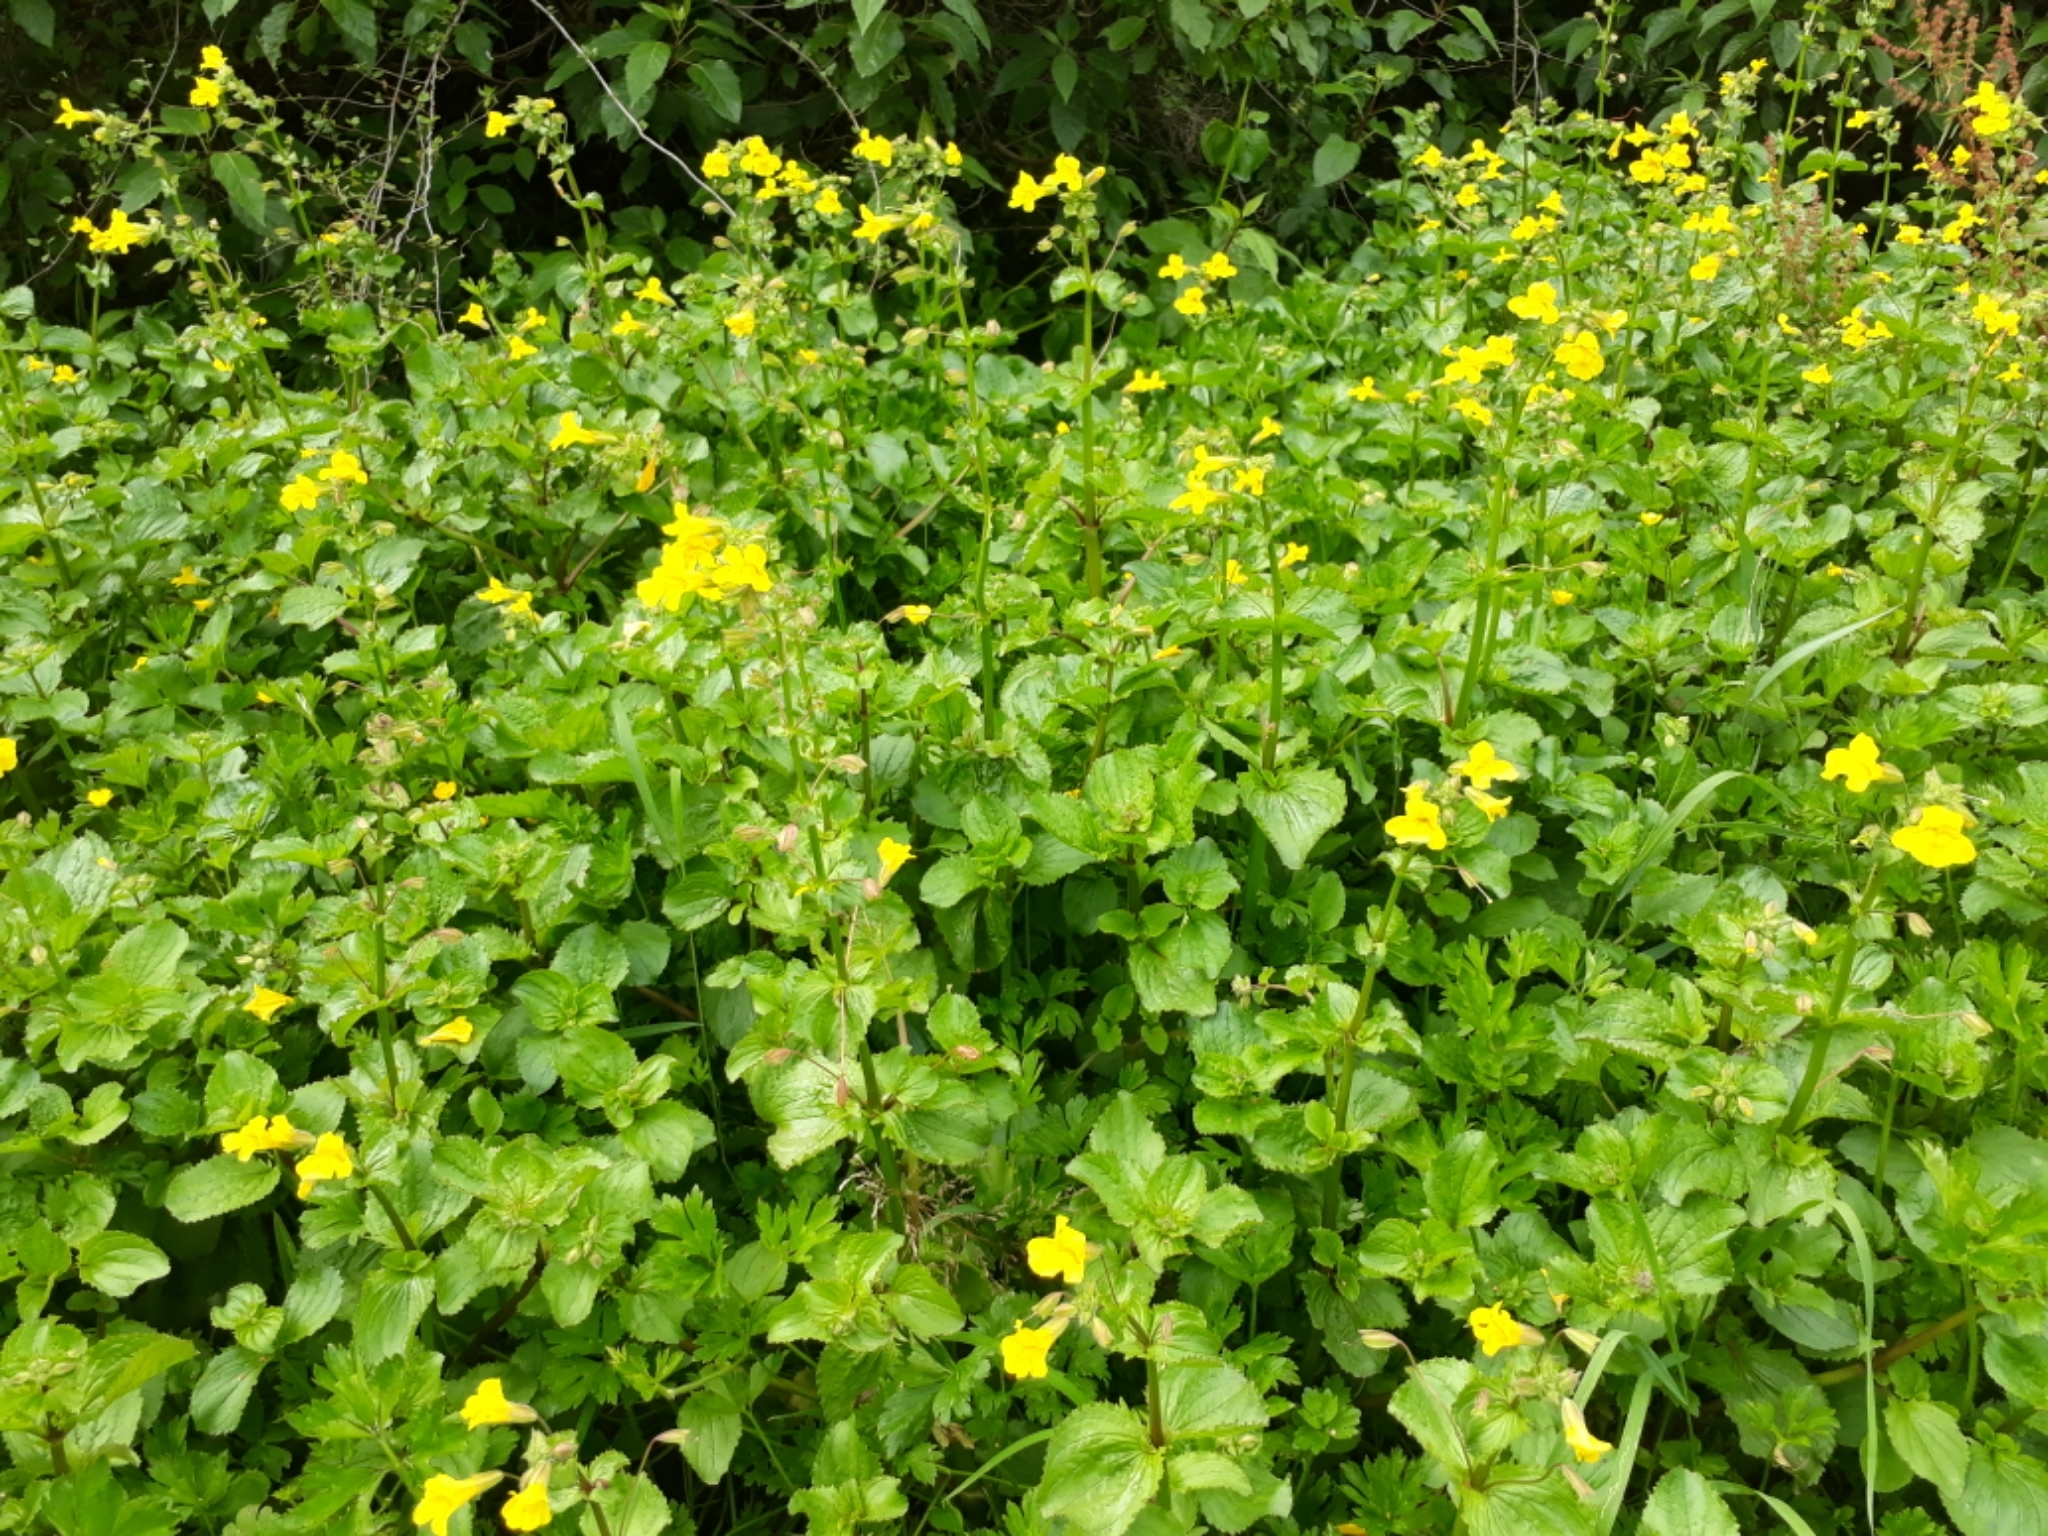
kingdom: Plantae
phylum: Tracheophyta
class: Magnoliopsida
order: Lamiales
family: Phrymaceae
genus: Erythranthe
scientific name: Erythranthe guttata
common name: Monkeyflower
